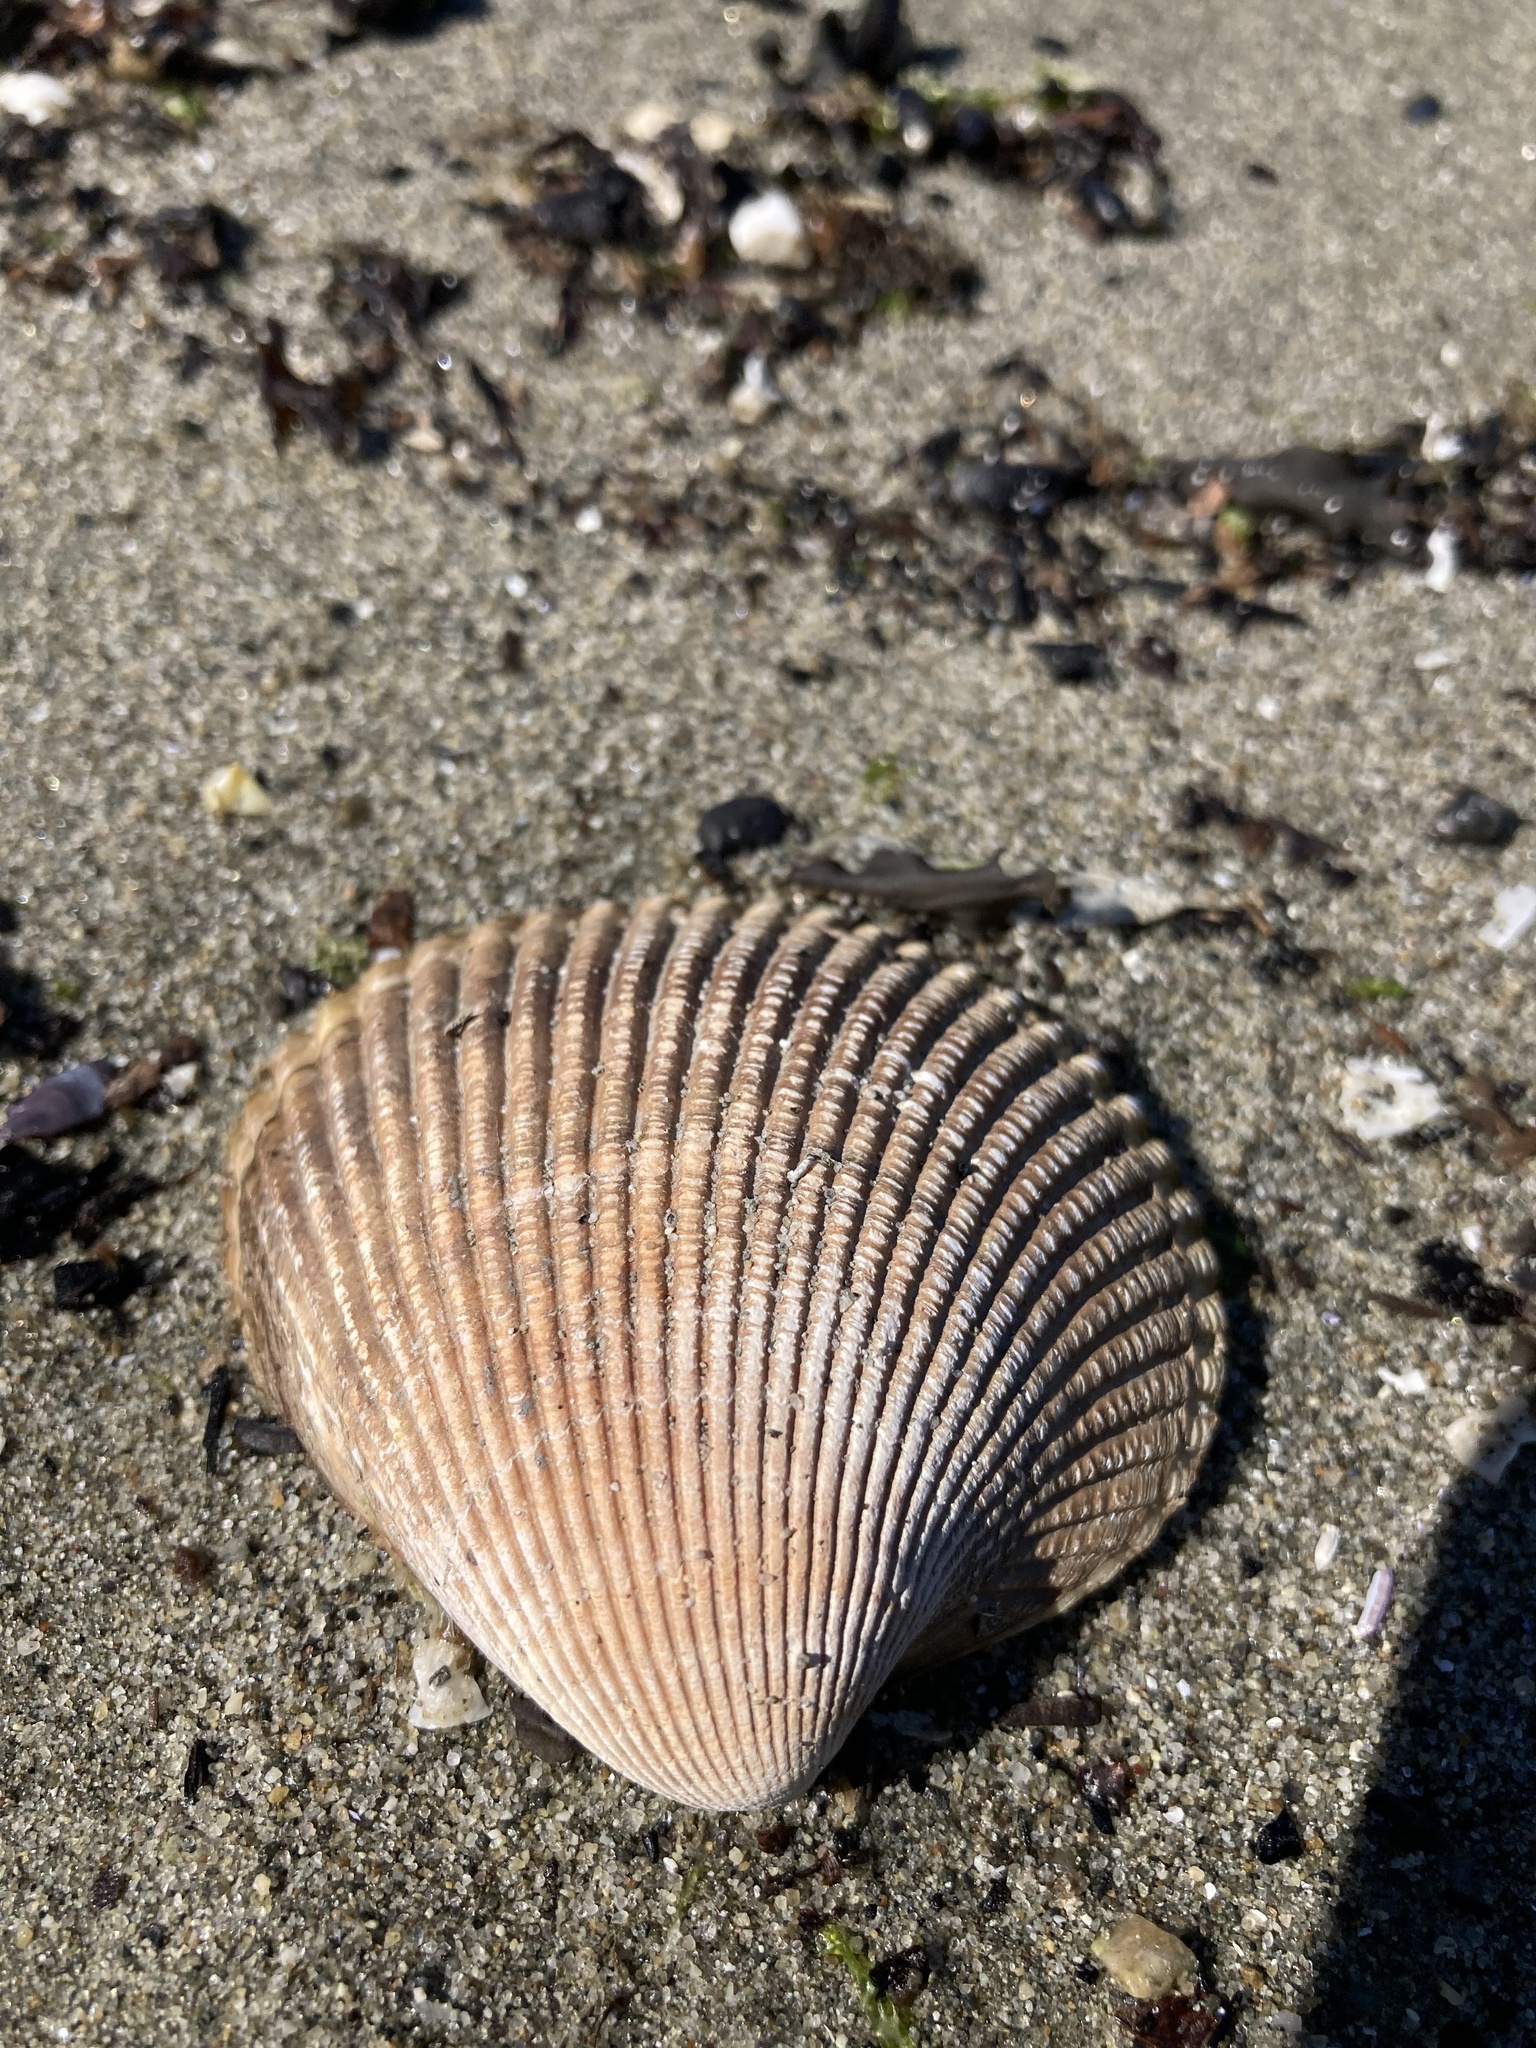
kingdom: Animalia
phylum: Mollusca
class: Bivalvia
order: Cardiida
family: Cardiidae
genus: Clinocardium
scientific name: Clinocardium nuttallii
